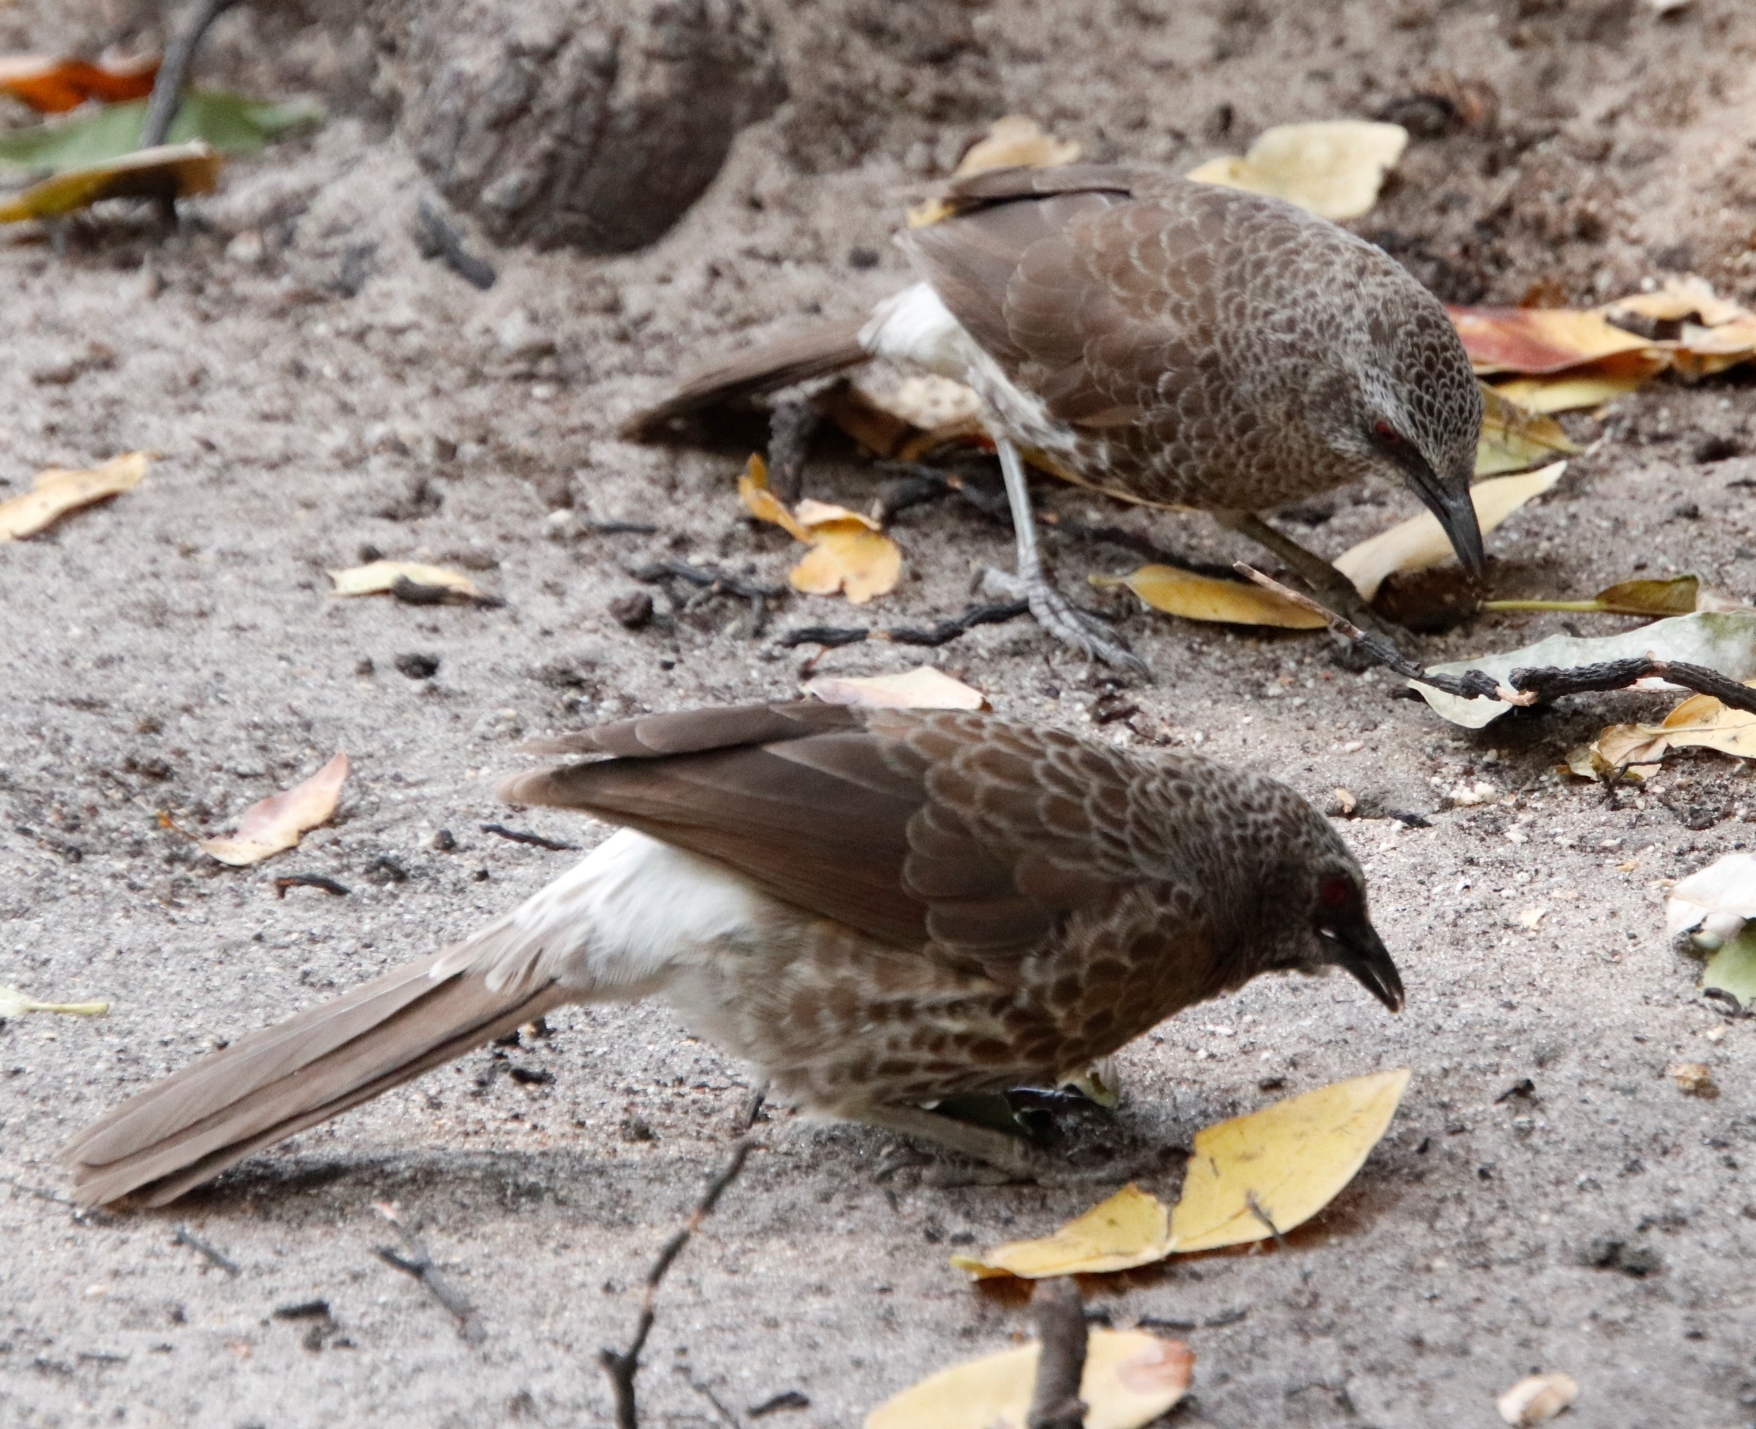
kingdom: Animalia
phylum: Chordata
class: Aves
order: Passeriformes
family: Leiothrichidae
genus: Turdoides
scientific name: Turdoides hartlaubii
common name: Hartlaub's babbler
